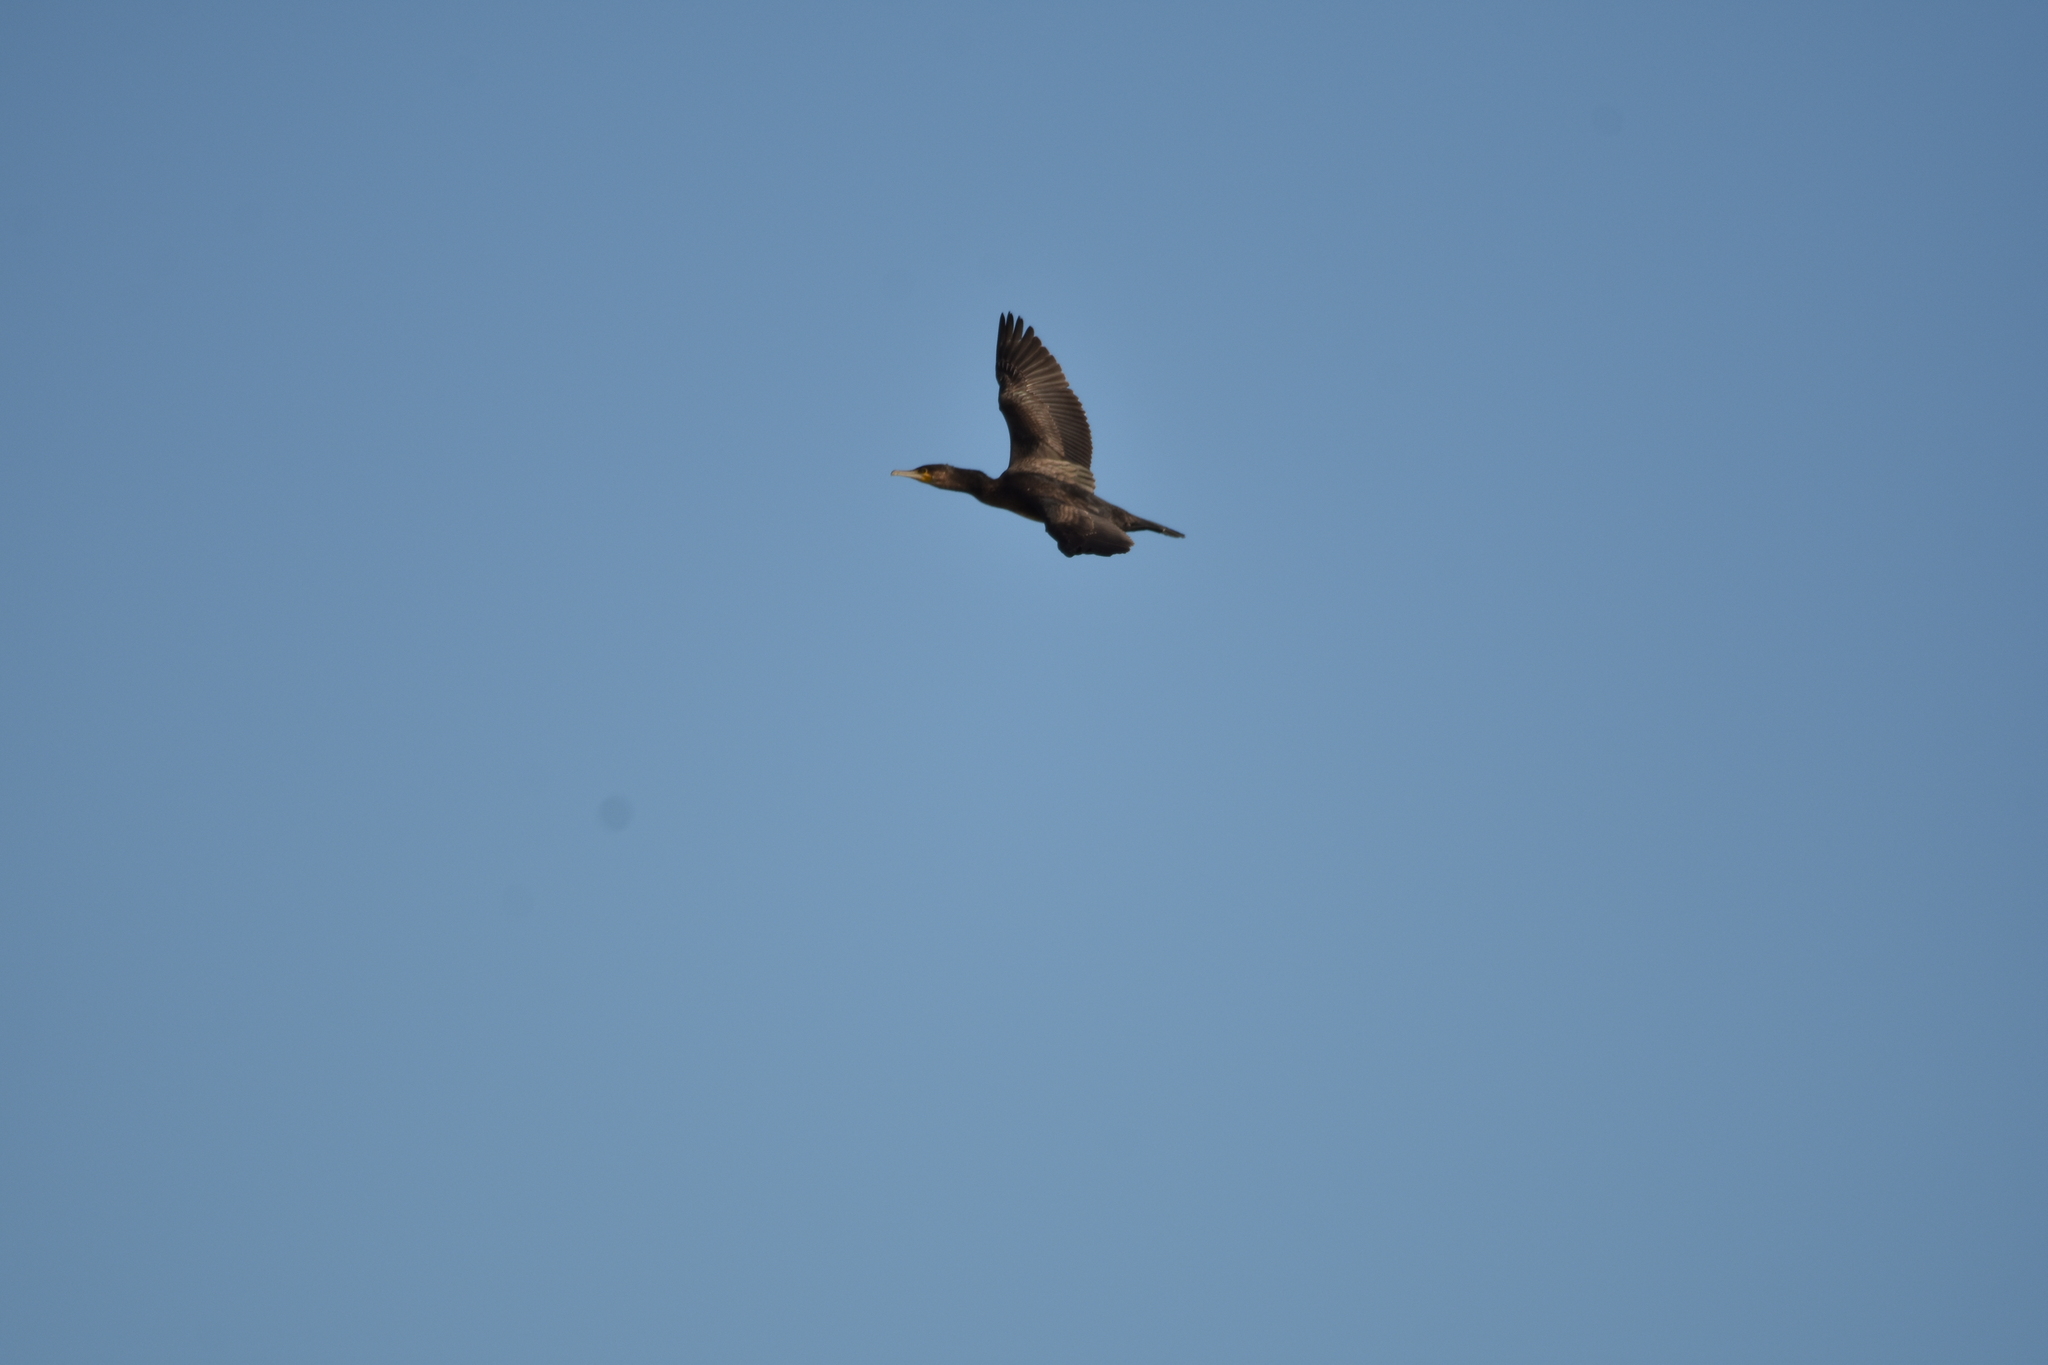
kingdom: Animalia
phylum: Chordata
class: Aves
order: Suliformes
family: Phalacrocoracidae
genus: Phalacrocorax
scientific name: Phalacrocorax carbo
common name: Great cormorant
